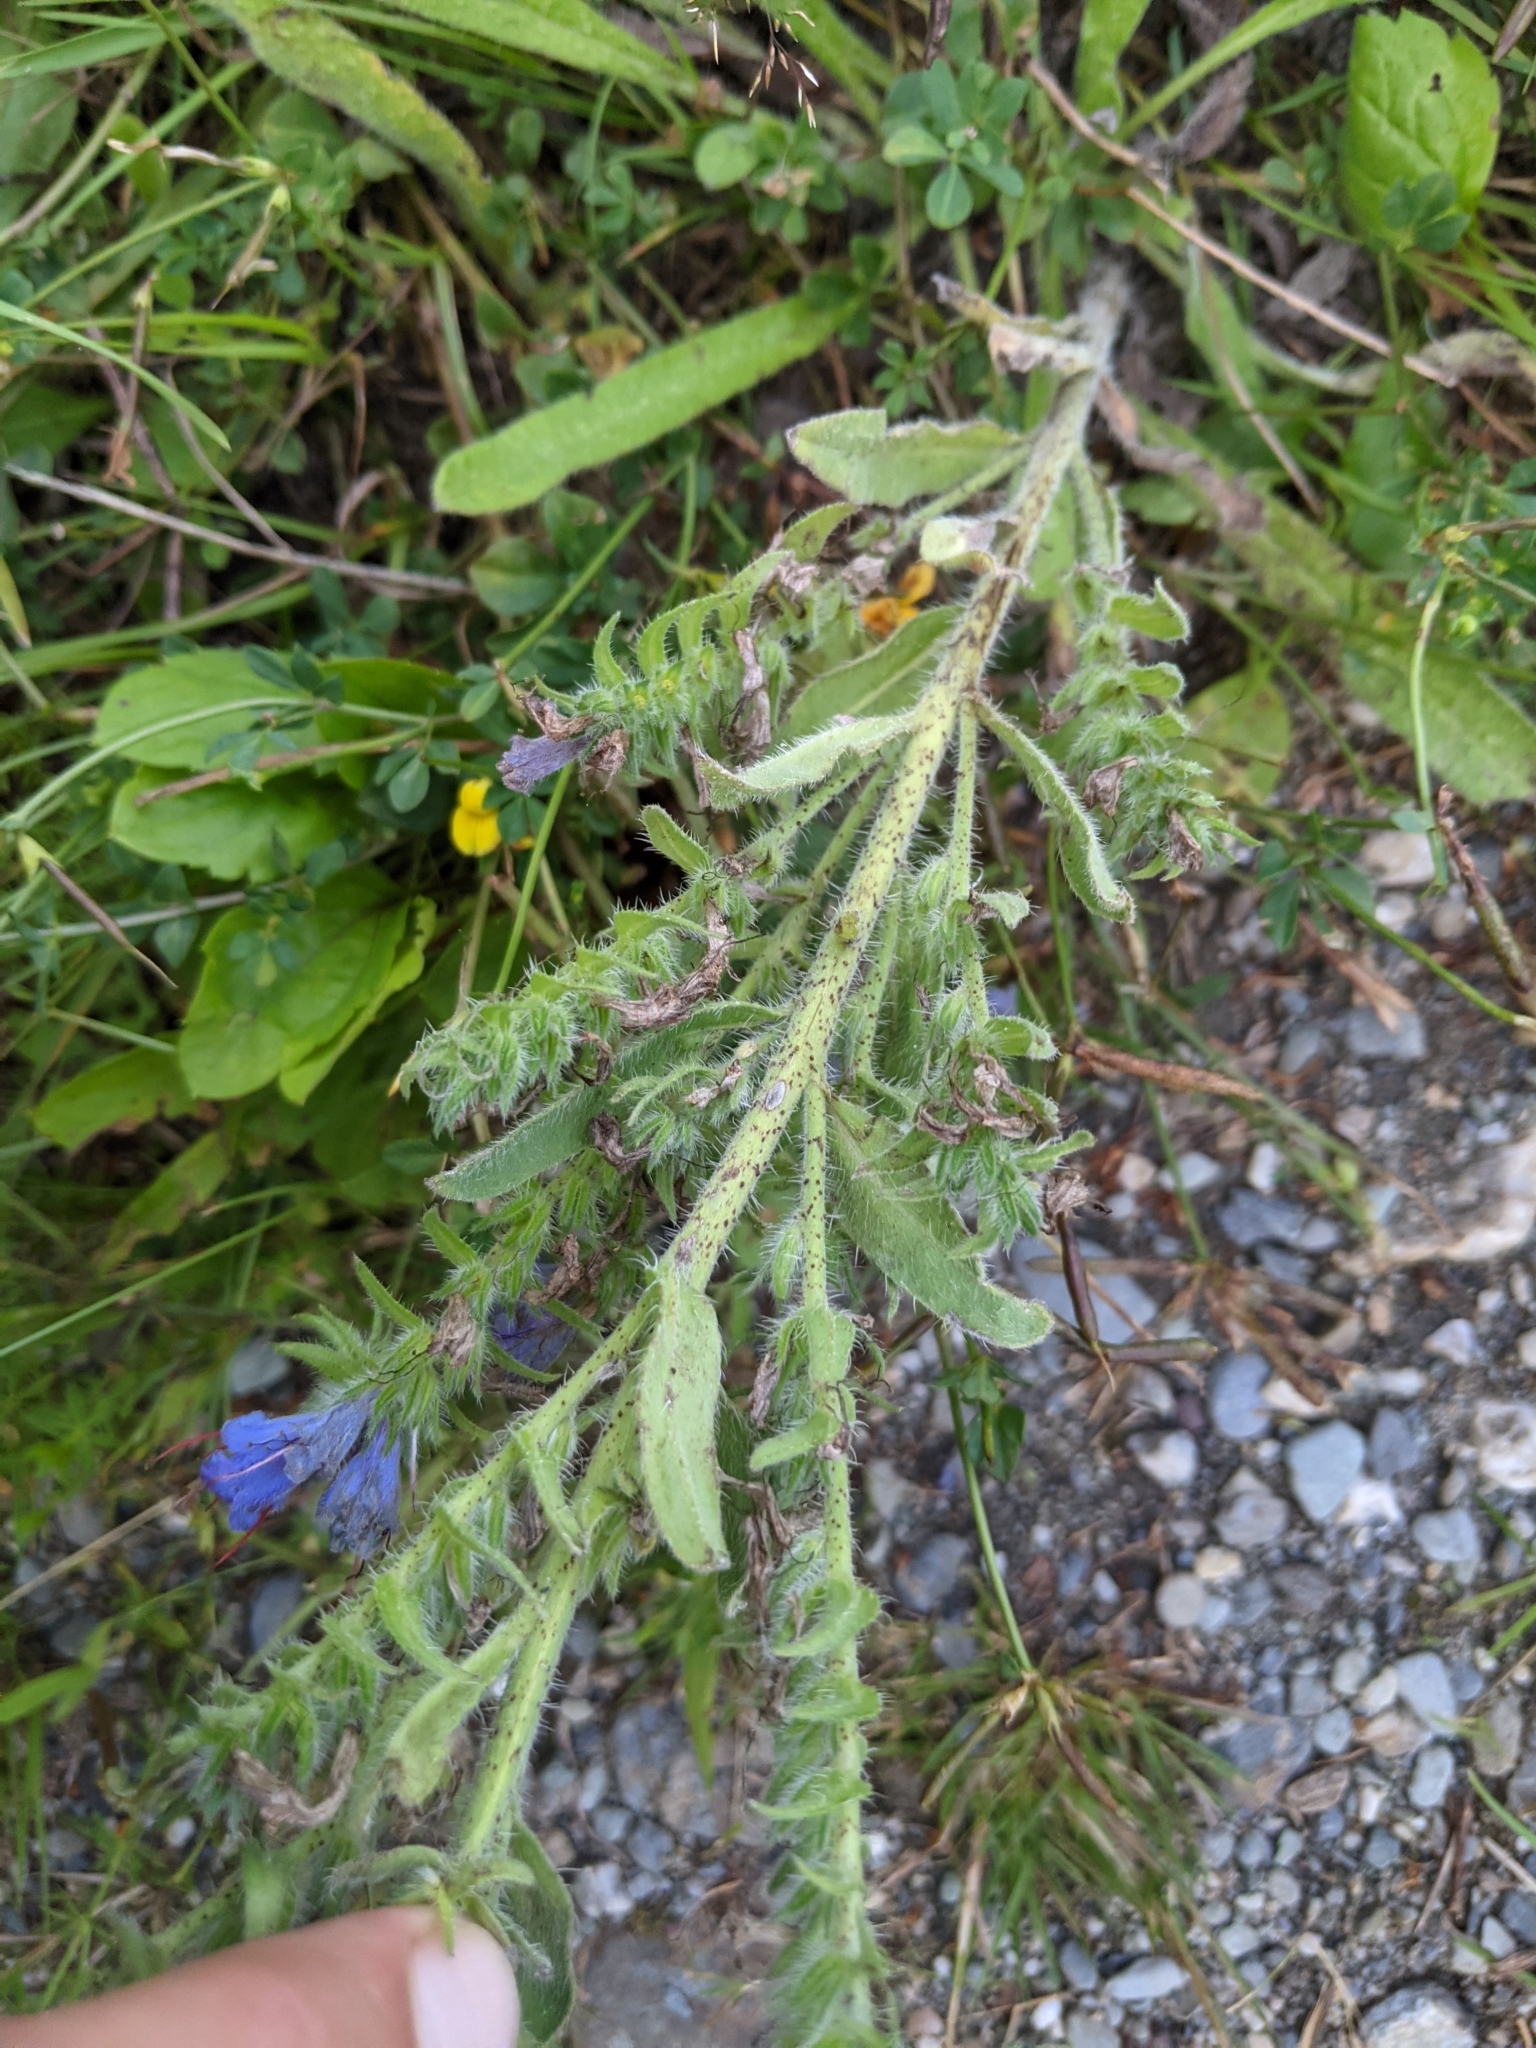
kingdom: Plantae
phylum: Tracheophyta
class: Magnoliopsida
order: Boraginales
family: Boraginaceae
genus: Echium
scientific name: Echium vulgare
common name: Common viper's bugloss
